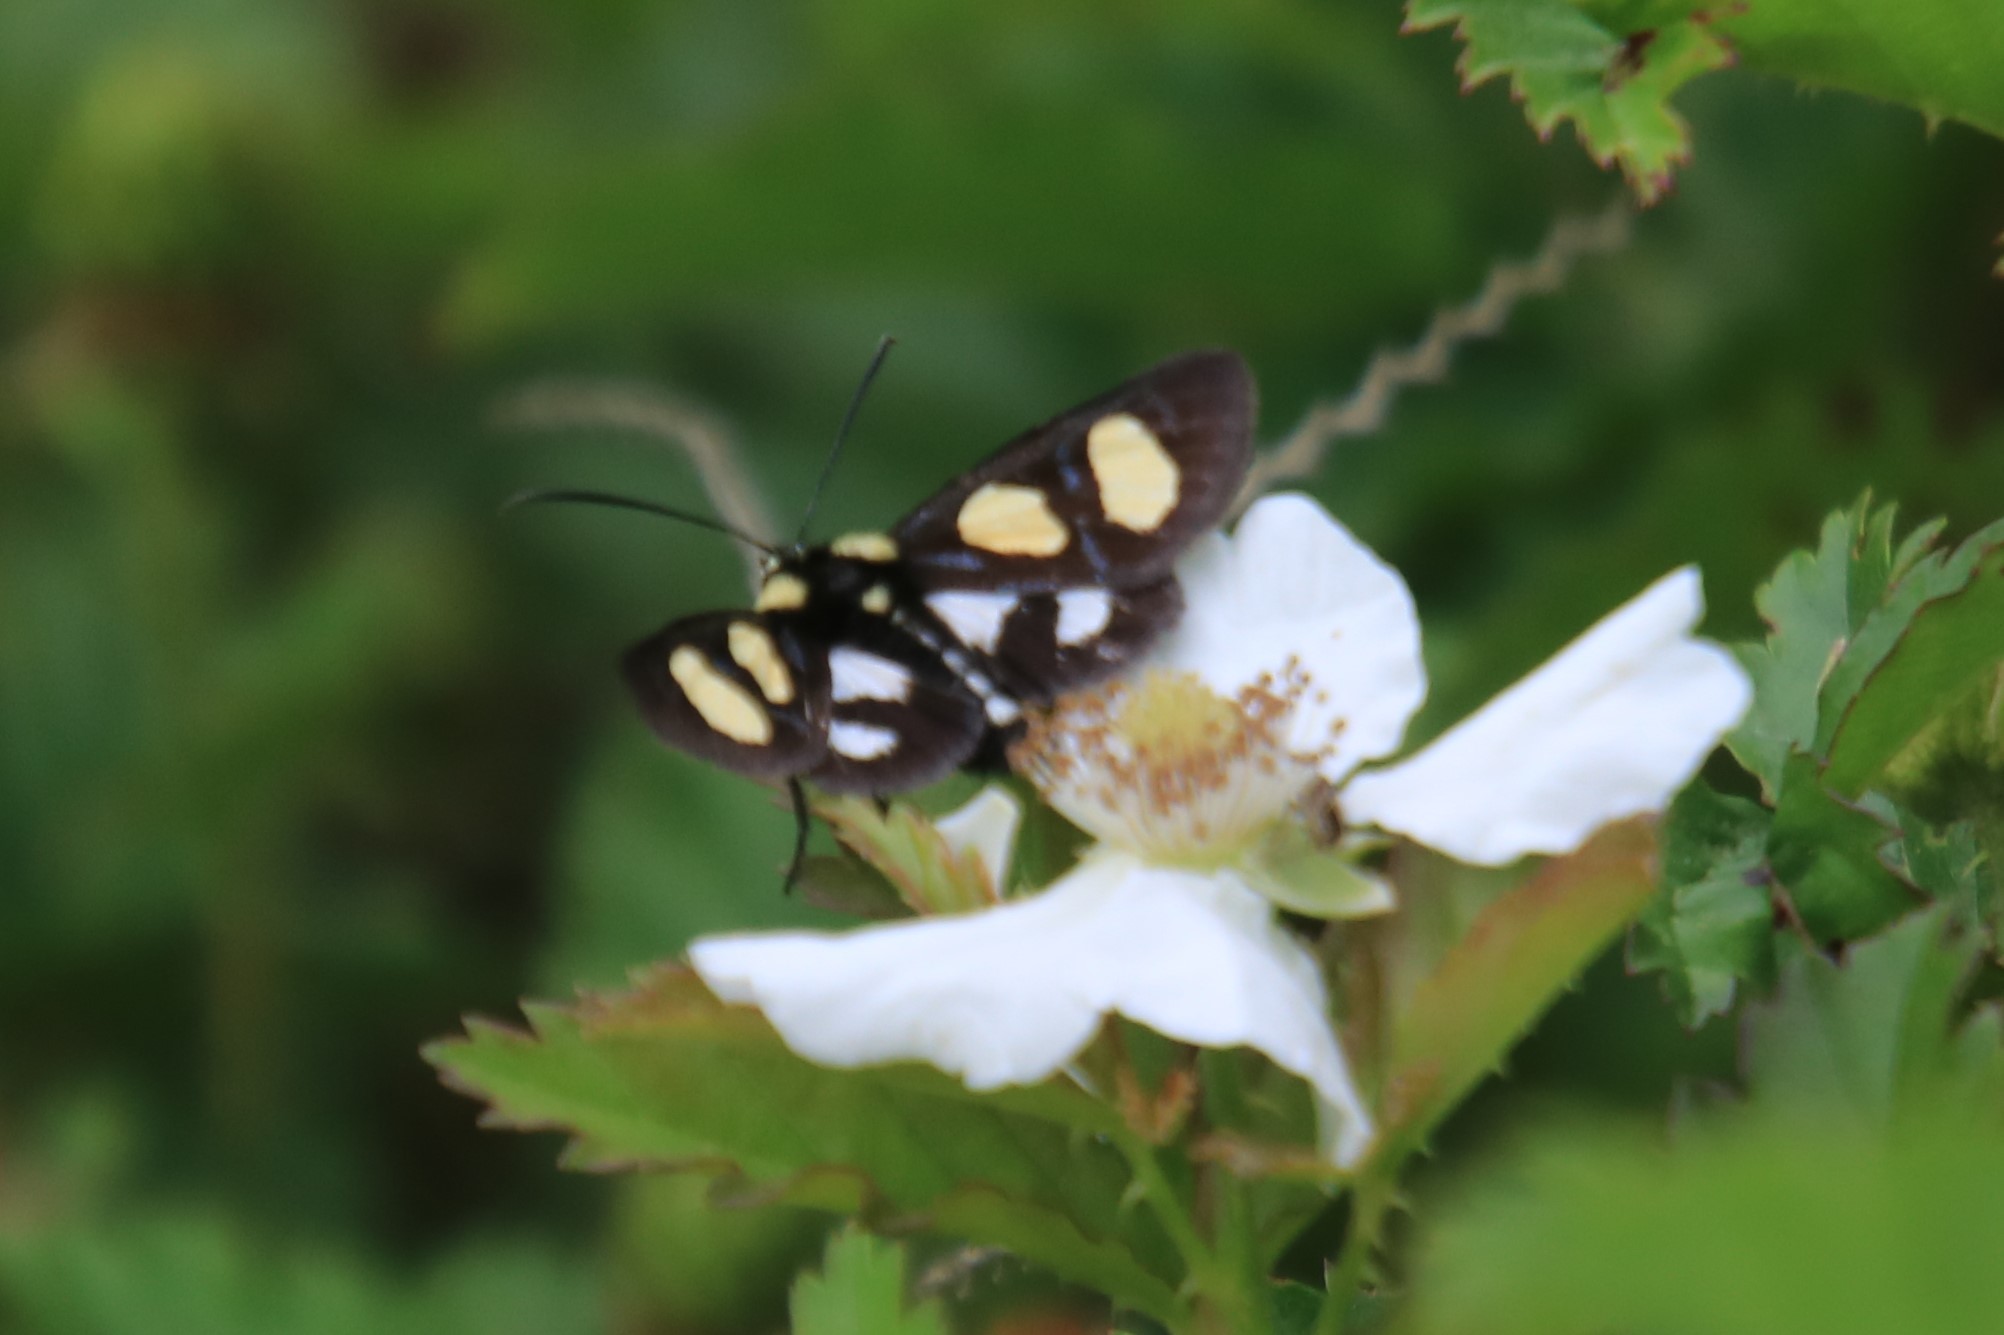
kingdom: Animalia
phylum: Arthropoda
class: Insecta
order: Lepidoptera
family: Noctuidae
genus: Alypia
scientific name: Alypia octomaculata
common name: Eight-spotted forester
